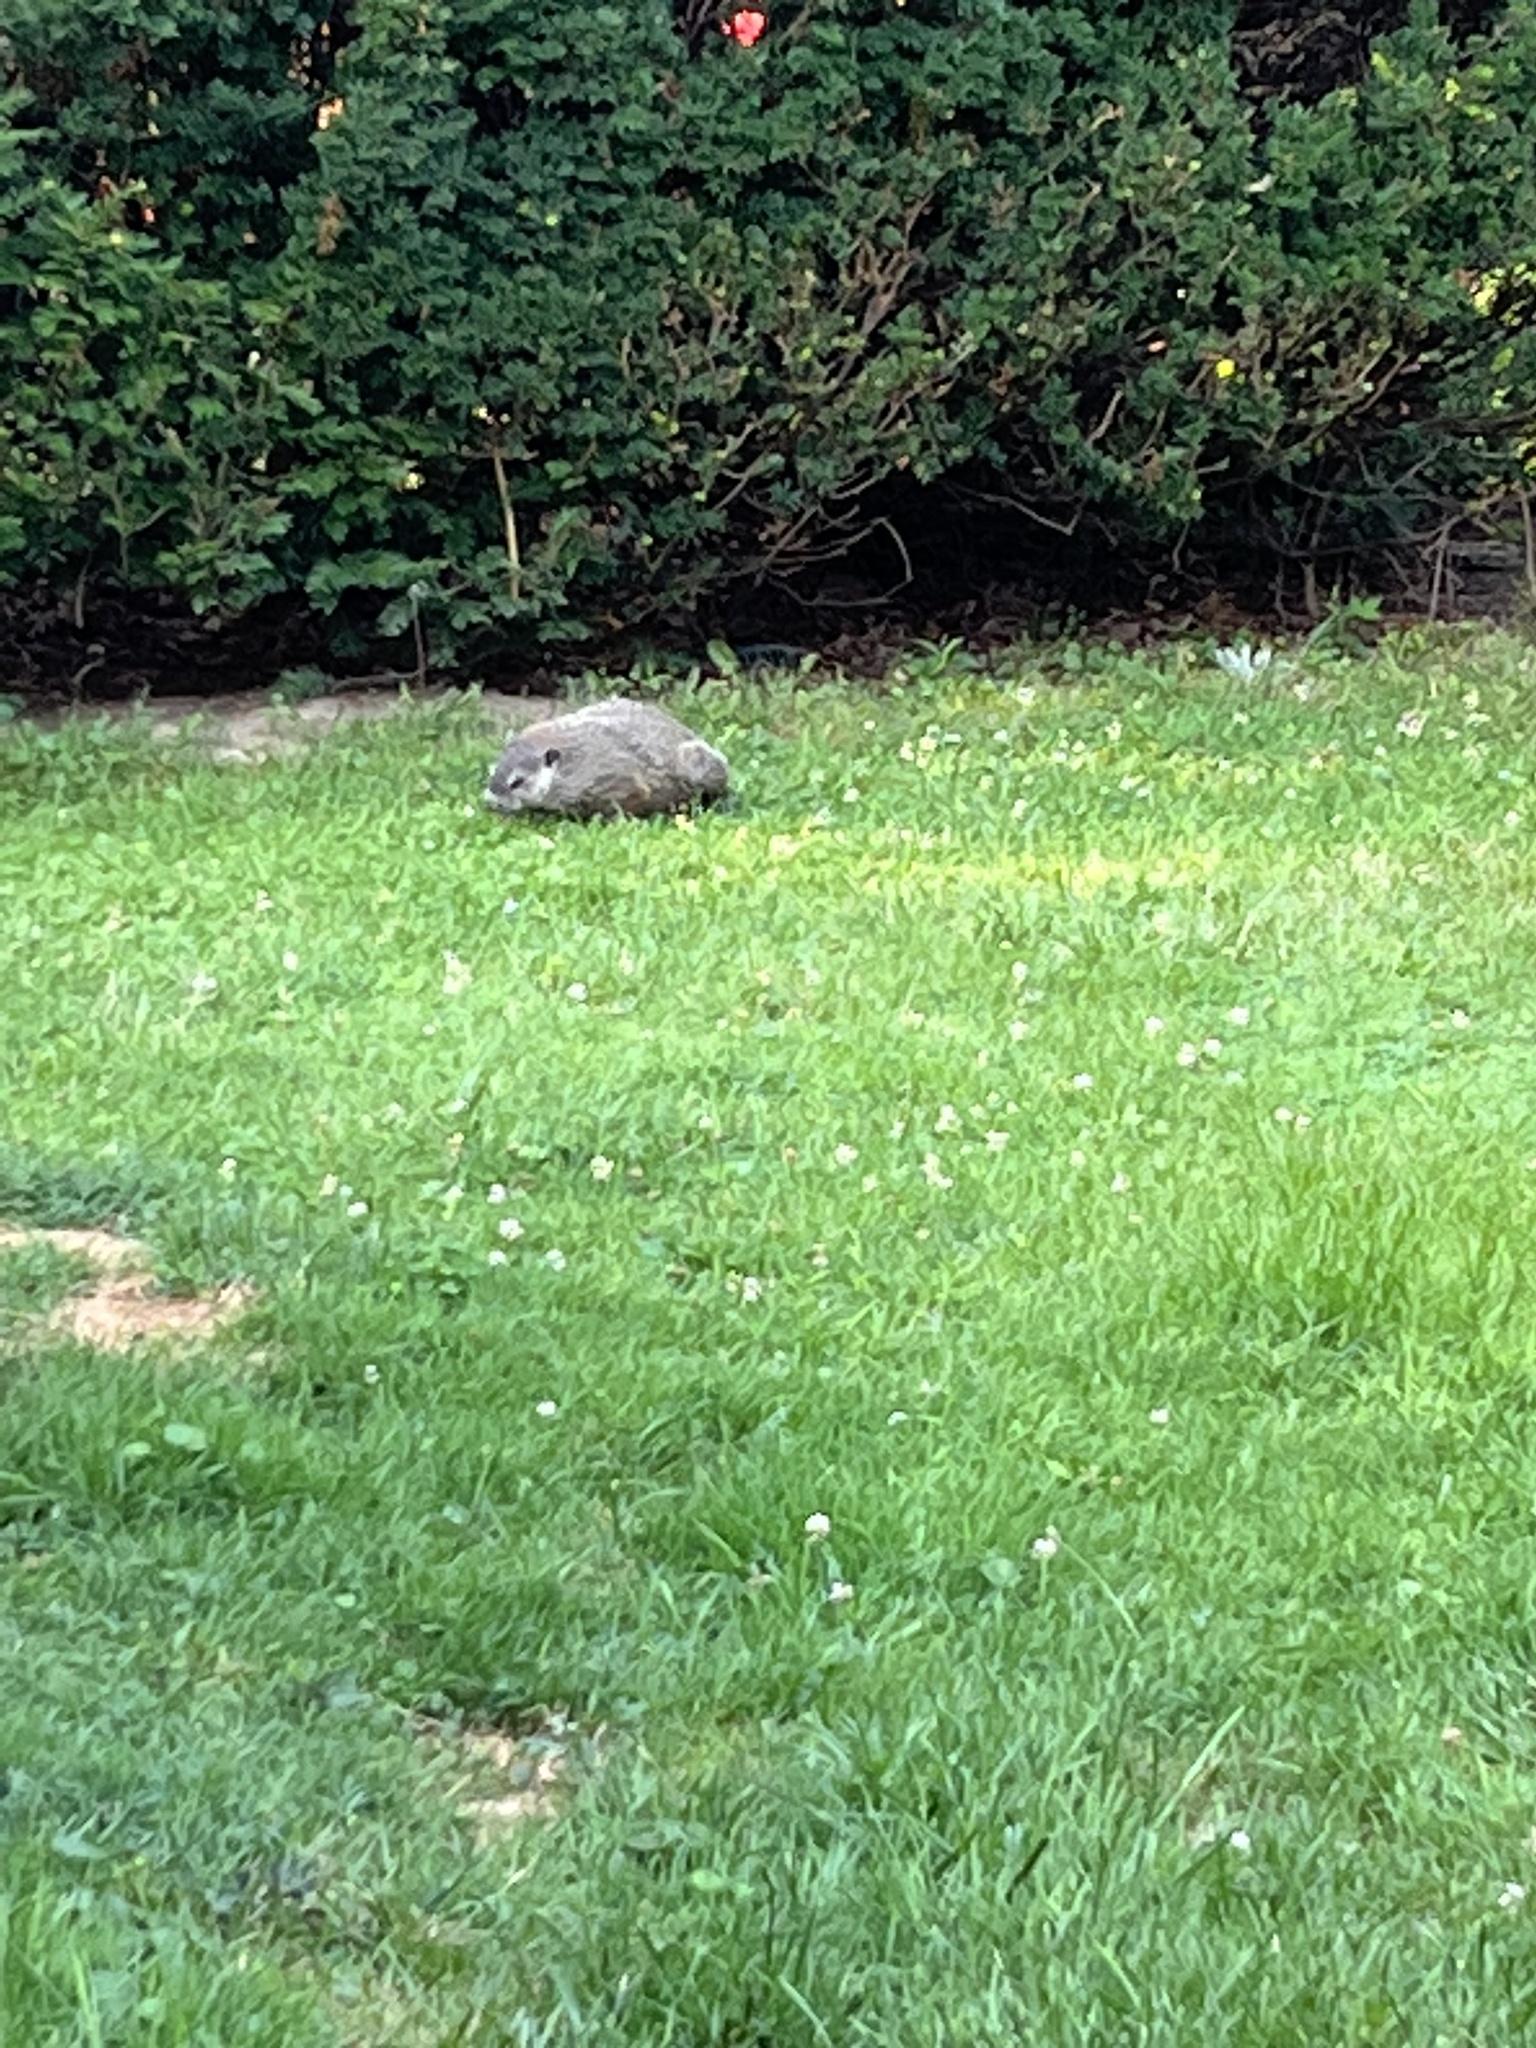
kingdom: Animalia
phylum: Chordata
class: Mammalia
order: Rodentia
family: Sciuridae
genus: Marmota
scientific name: Marmota monax
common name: Groundhog
